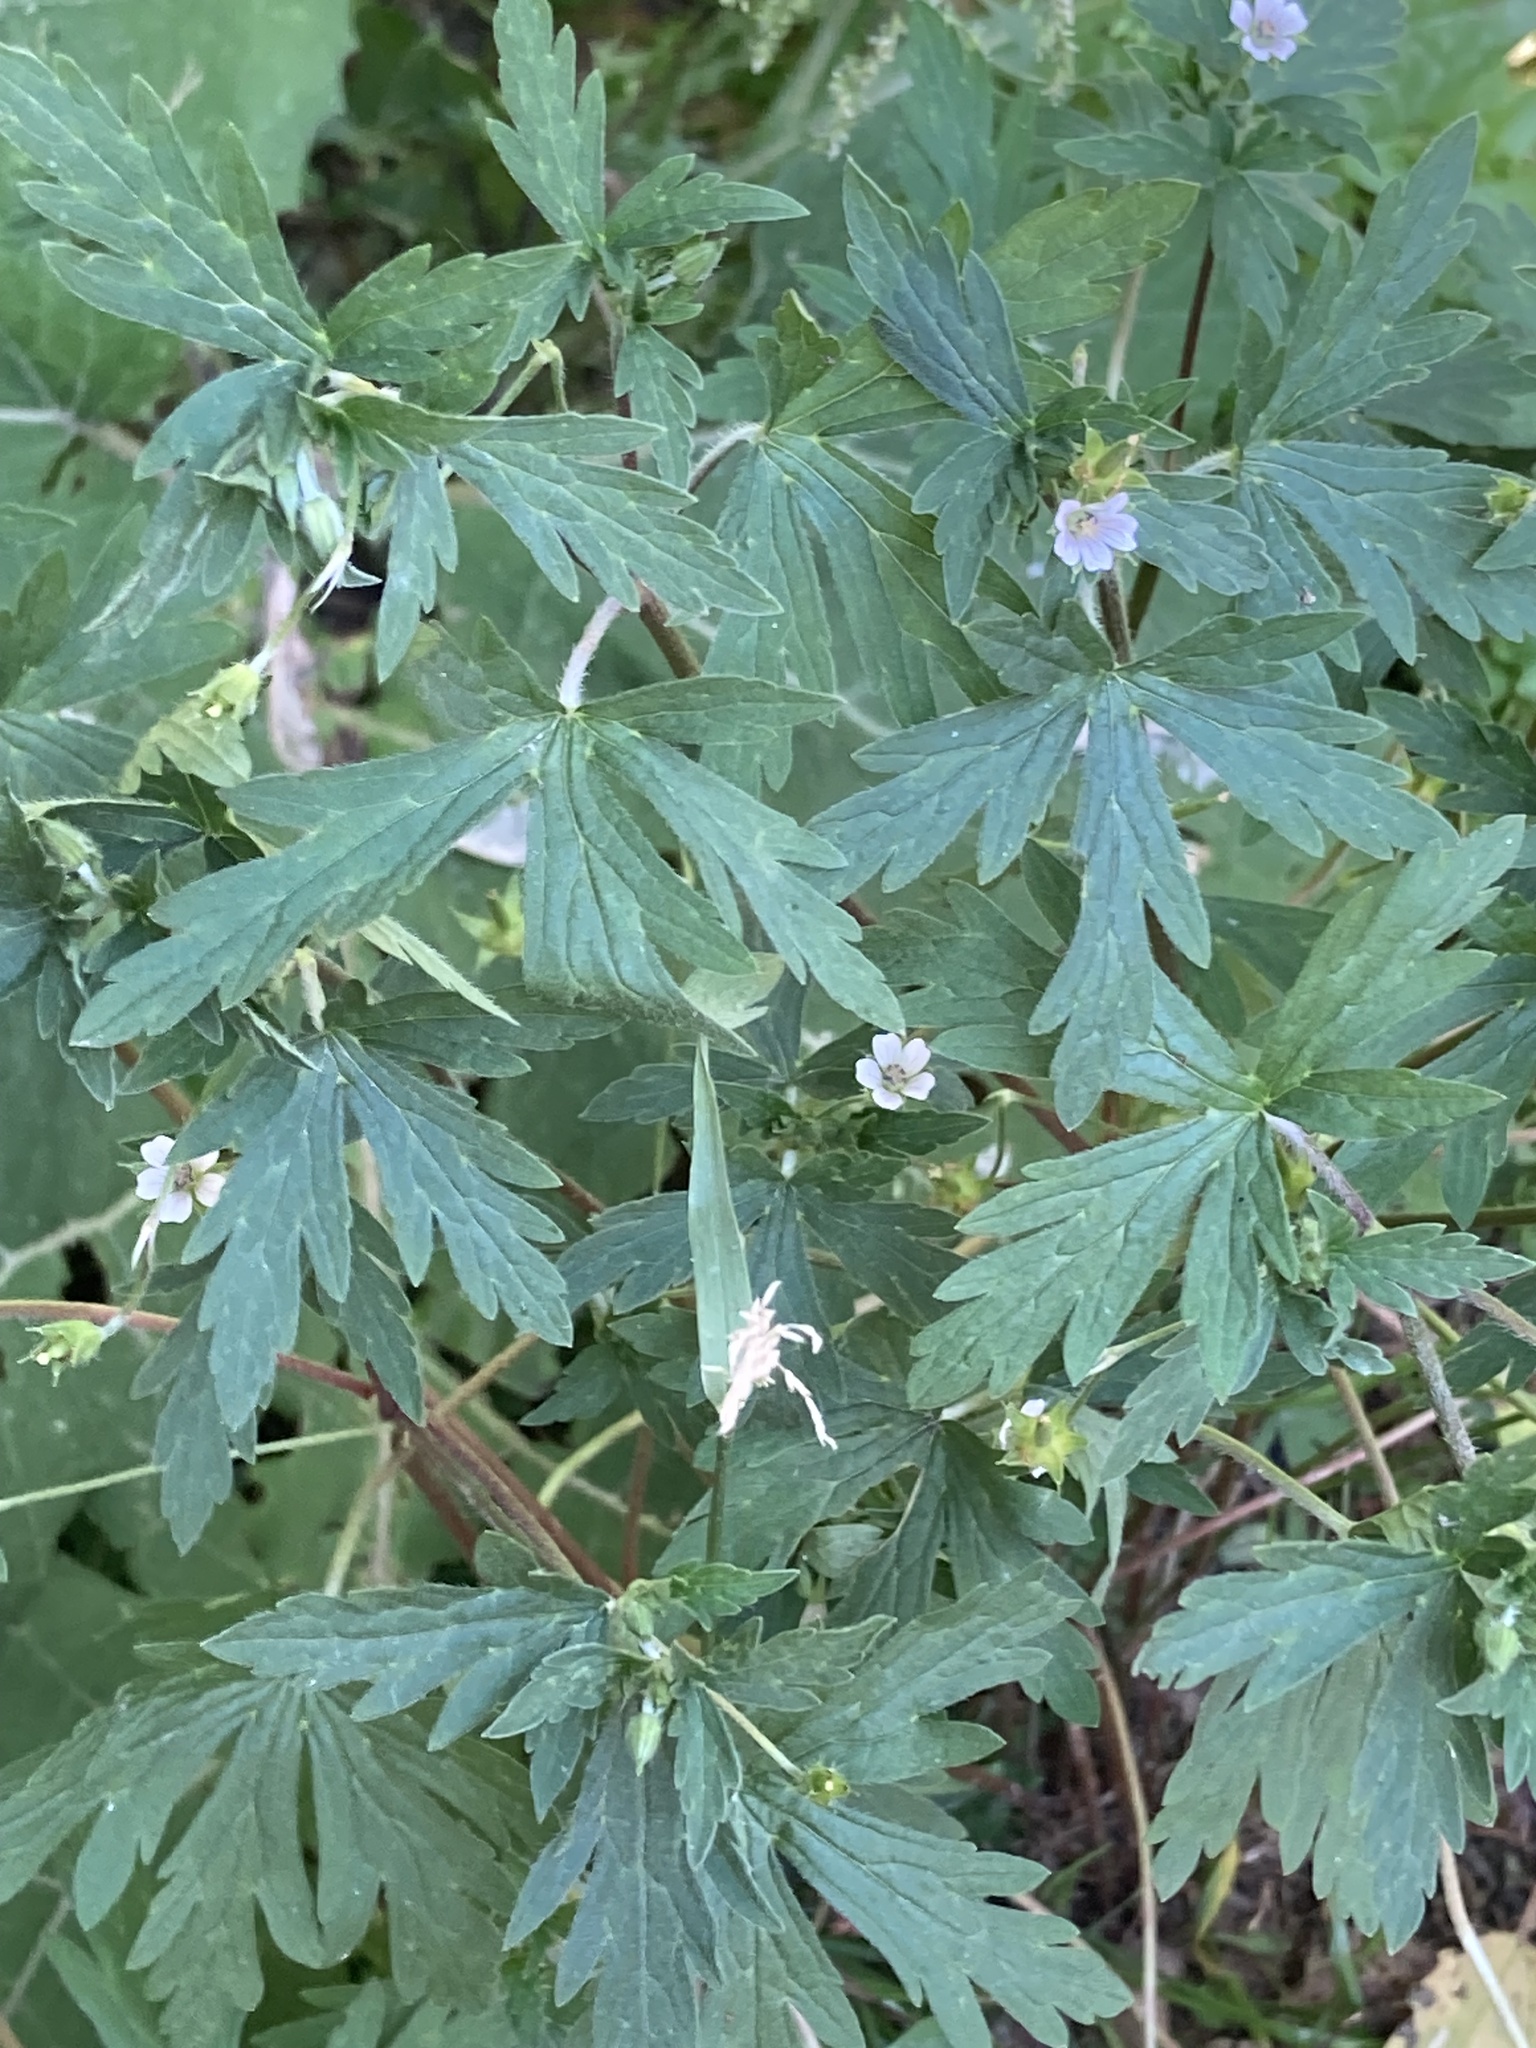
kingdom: Plantae
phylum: Tracheophyta
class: Magnoliopsida
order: Geraniales
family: Geraniaceae
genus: Geranium
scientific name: Geranium sibiricum
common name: Siberian crane's-bill
